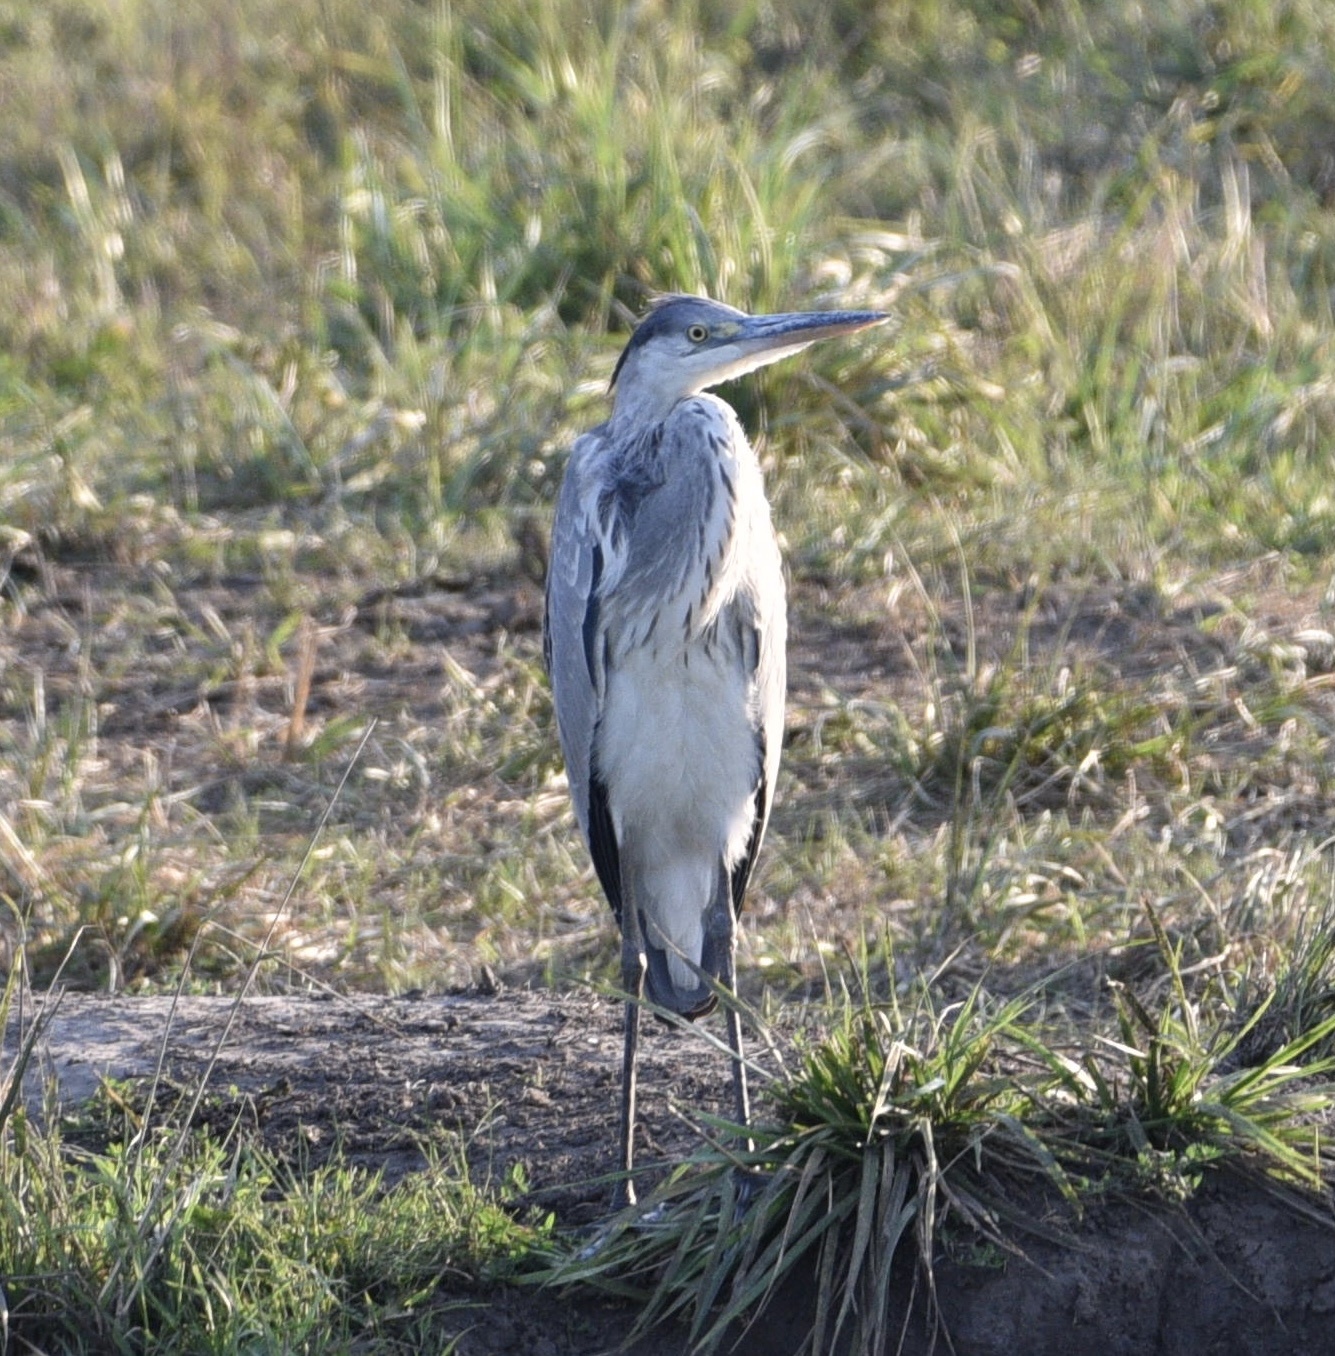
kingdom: Animalia
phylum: Chordata
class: Aves
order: Pelecaniformes
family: Ardeidae
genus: Ardea
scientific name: Ardea cinerea
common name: Grey heron
